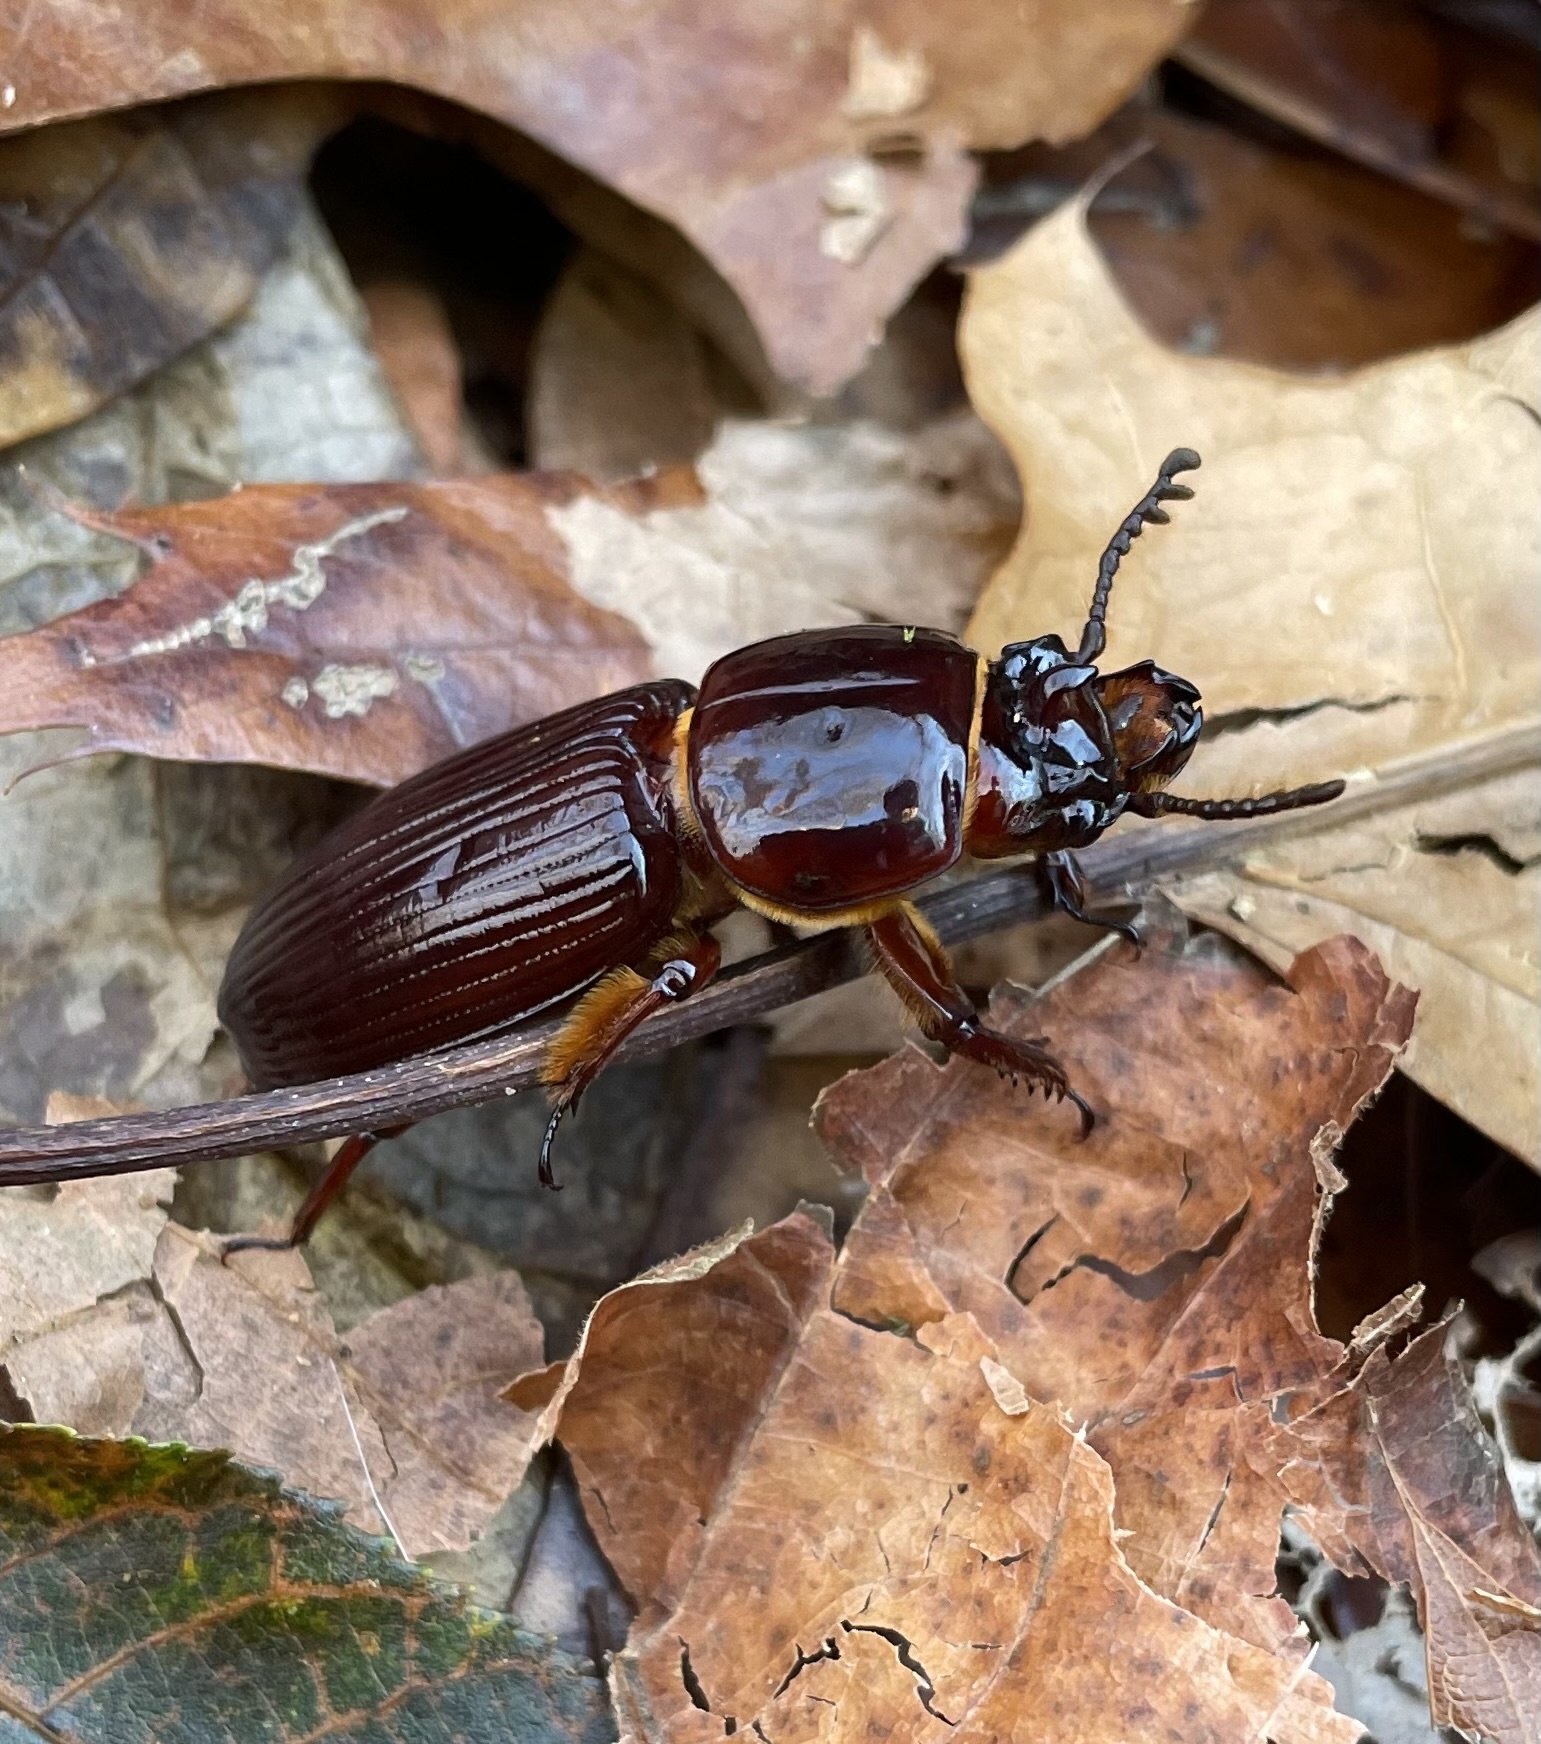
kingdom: Animalia
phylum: Arthropoda
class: Insecta
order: Coleoptera
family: Passalidae
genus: Odontotaenius
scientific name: Odontotaenius disjunctus
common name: Patent leather beetle
